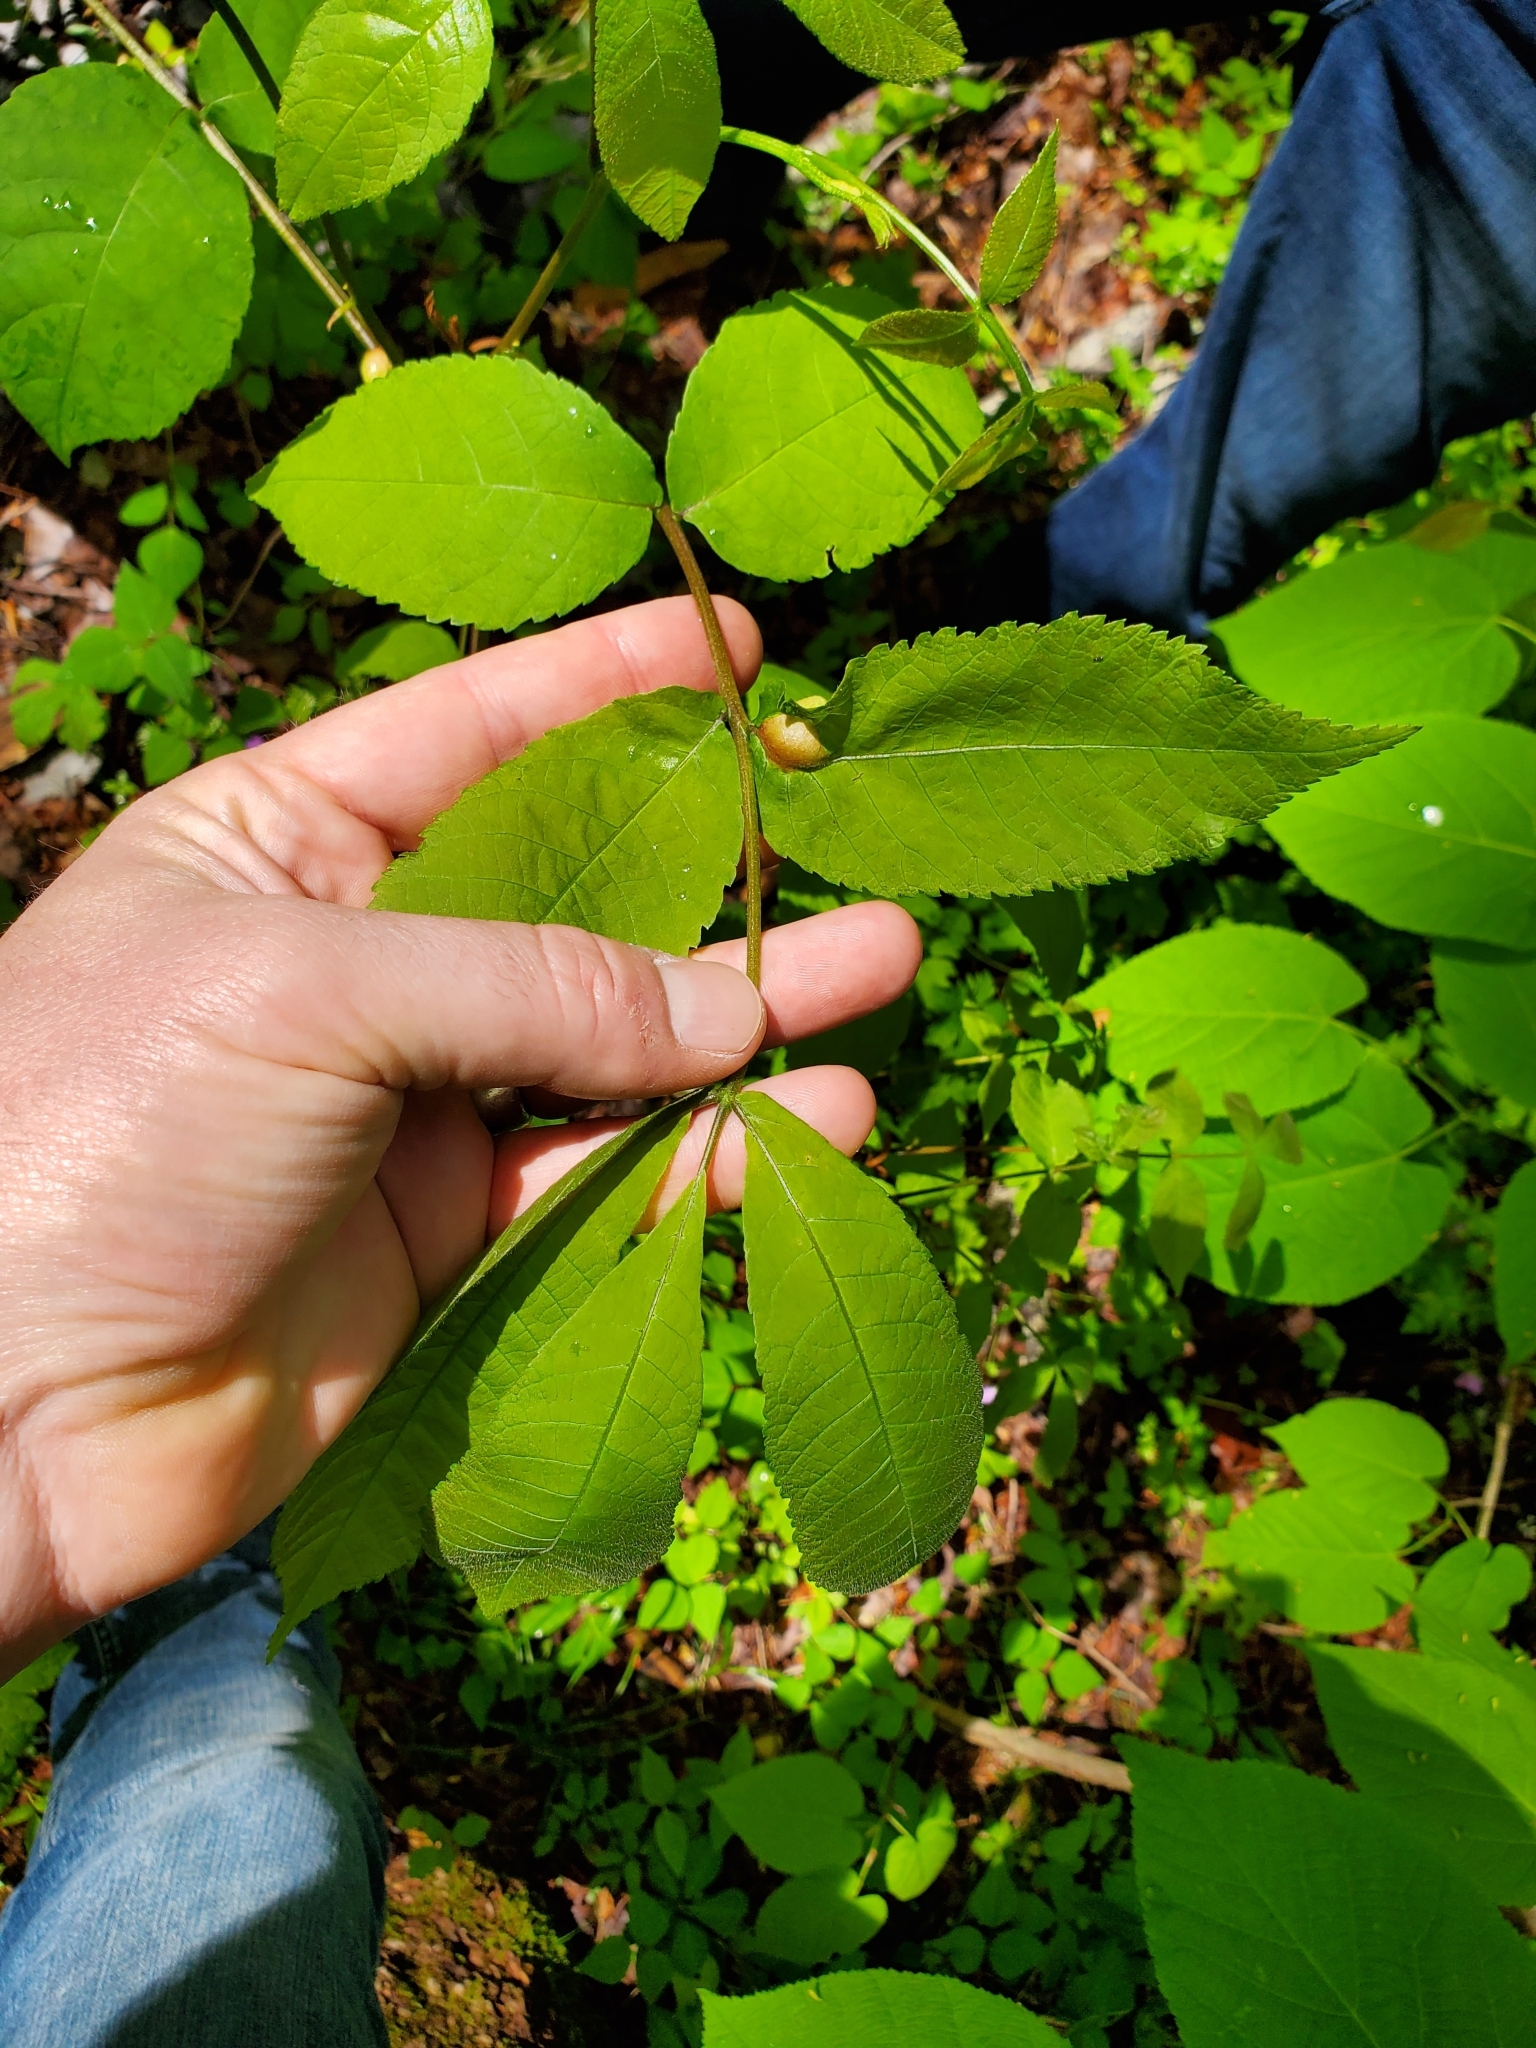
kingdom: Animalia
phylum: Arthropoda
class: Insecta
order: Hemiptera
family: Phylloxeridae
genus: Phylloxera
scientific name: Phylloxera
